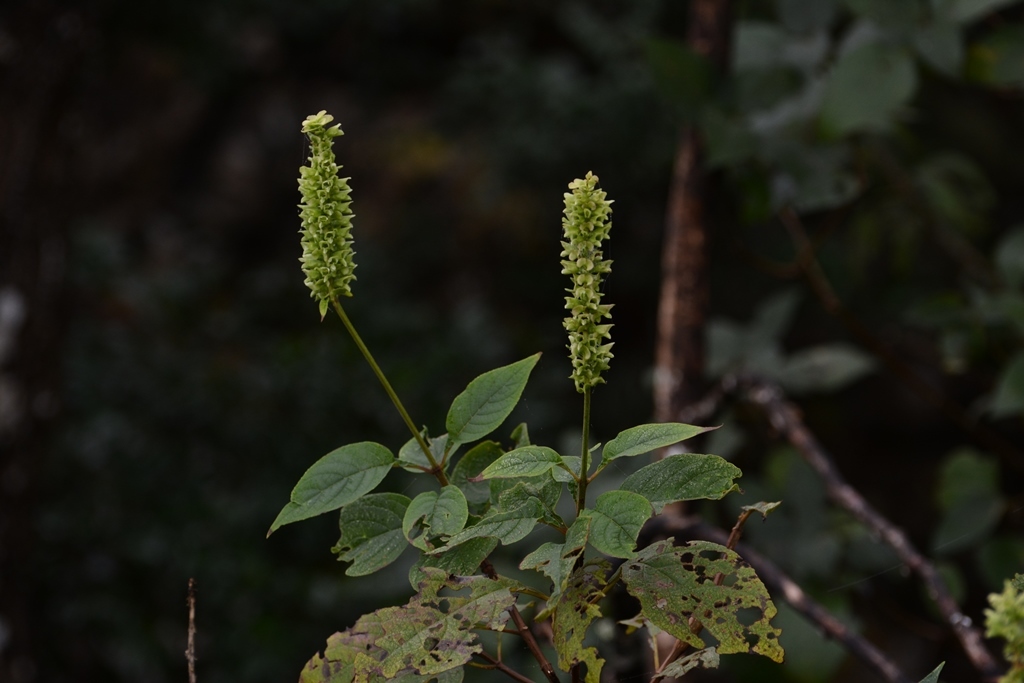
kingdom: Plantae
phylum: Tracheophyta
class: Magnoliopsida
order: Lamiales
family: Lamiaceae
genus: Catoferia
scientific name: Catoferia chiapensis
